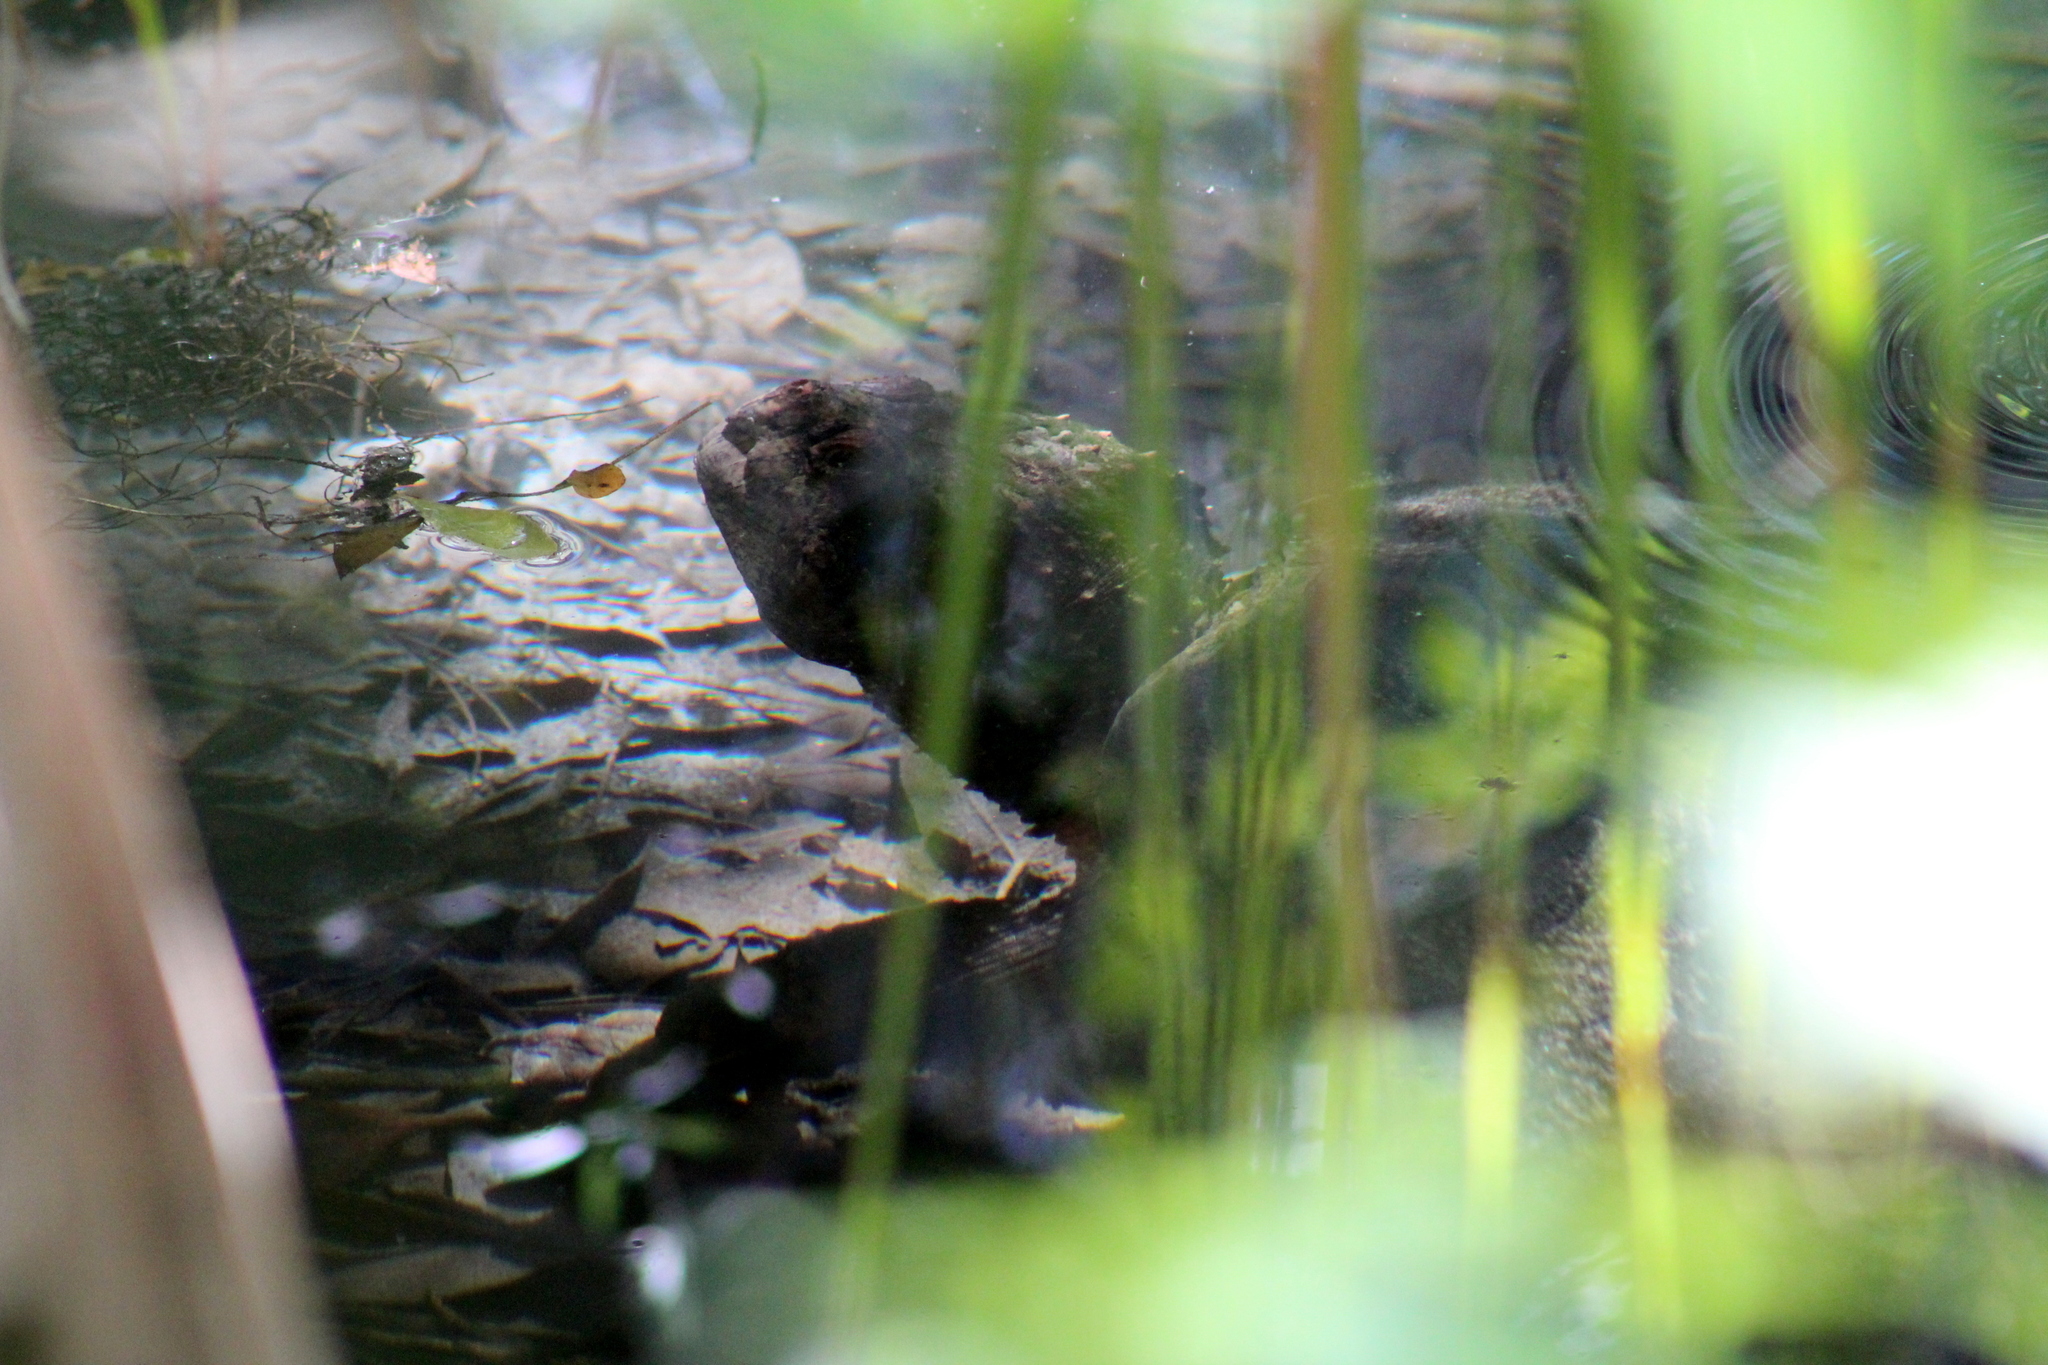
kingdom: Animalia
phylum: Chordata
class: Testudines
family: Chelydridae
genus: Chelydra
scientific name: Chelydra serpentina
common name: Common snapping turtle
